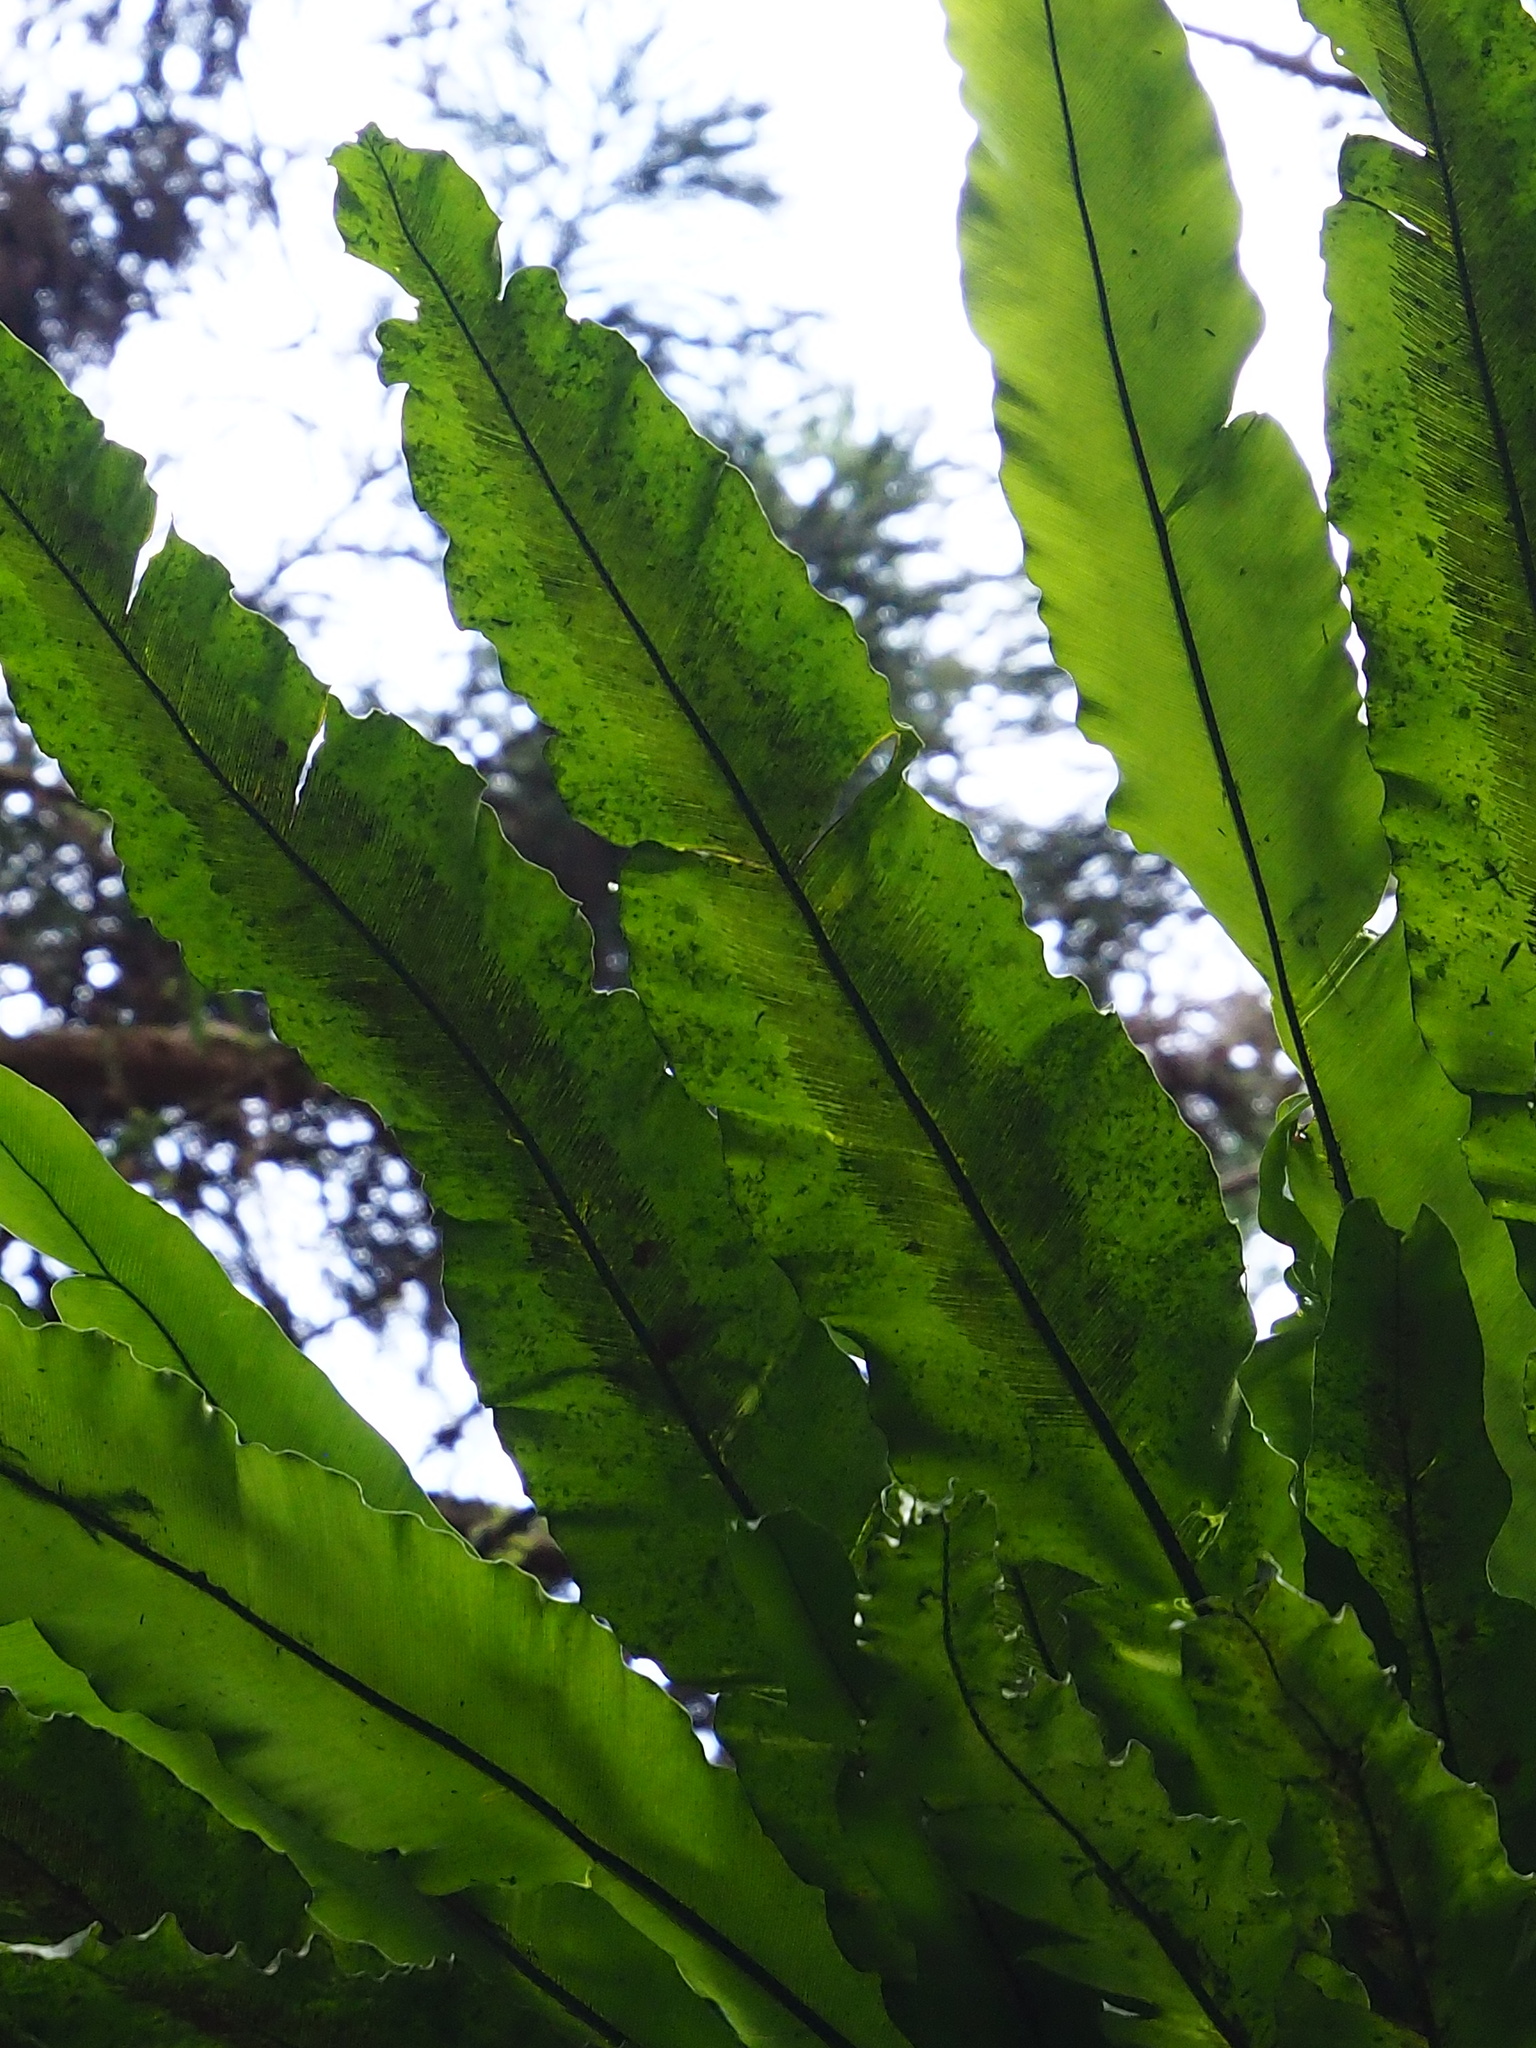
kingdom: Plantae
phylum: Tracheophyta
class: Polypodiopsida
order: Polypodiales
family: Aspleniaceae
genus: Asplenium
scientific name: Asplenium nidus
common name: Bird's-nest fern
